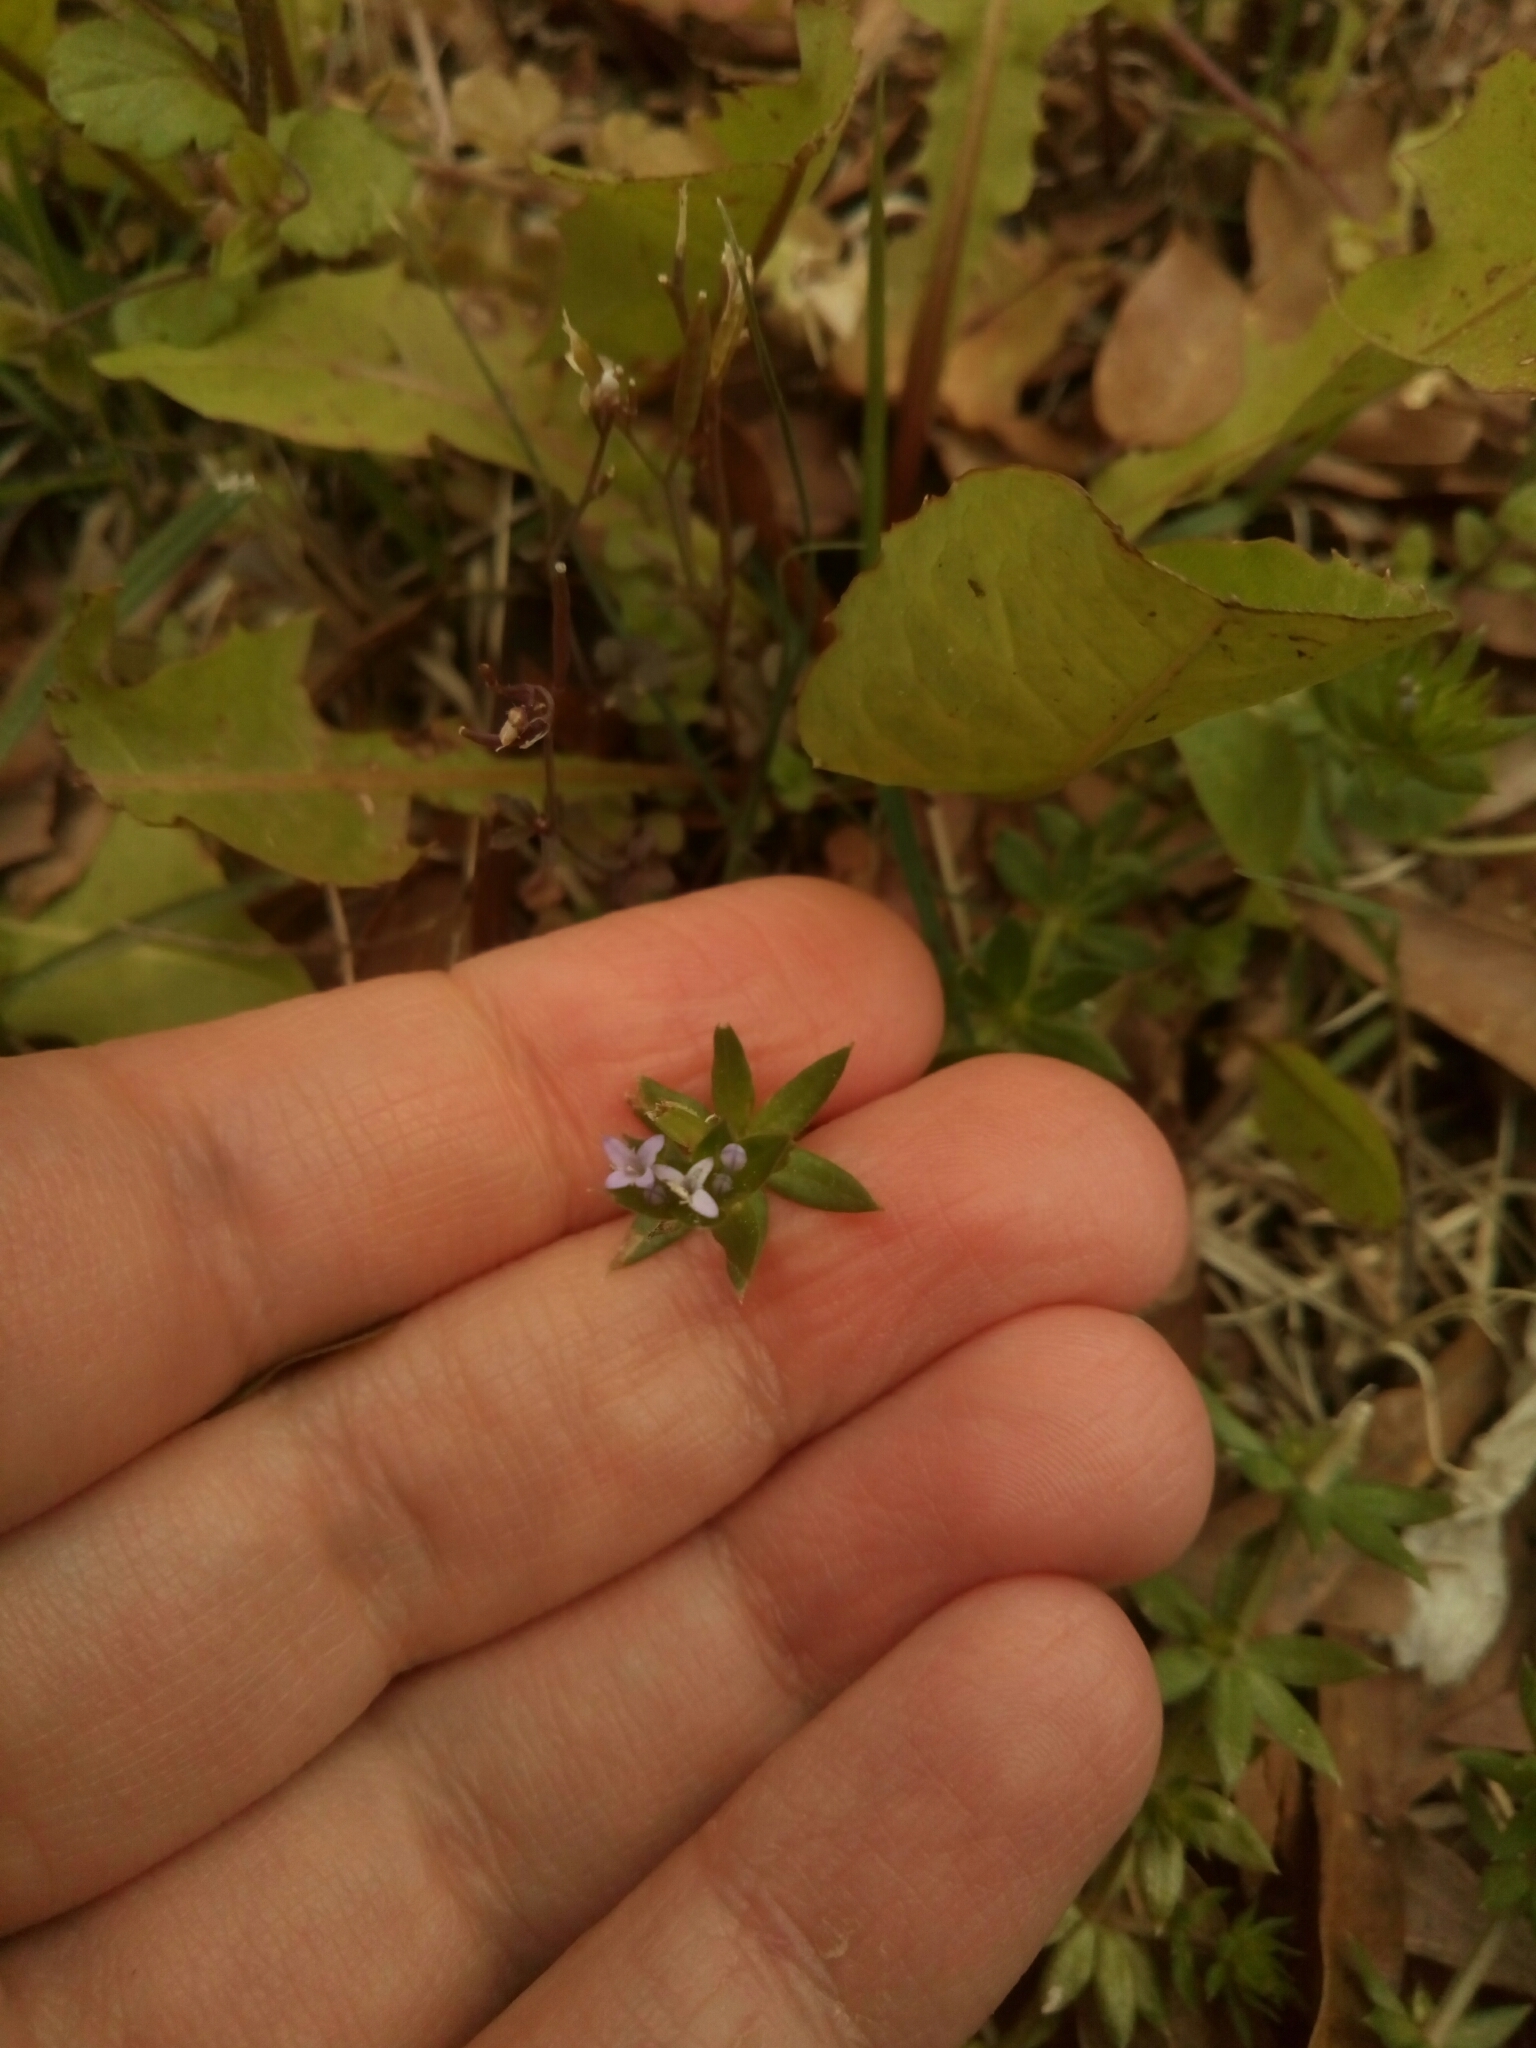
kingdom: Plantae
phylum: Tracheophyta
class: Magnoliopsida
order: Gentianales
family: Rubiaceae
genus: Sherardia
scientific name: Sherardia arvensis
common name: Field madder
